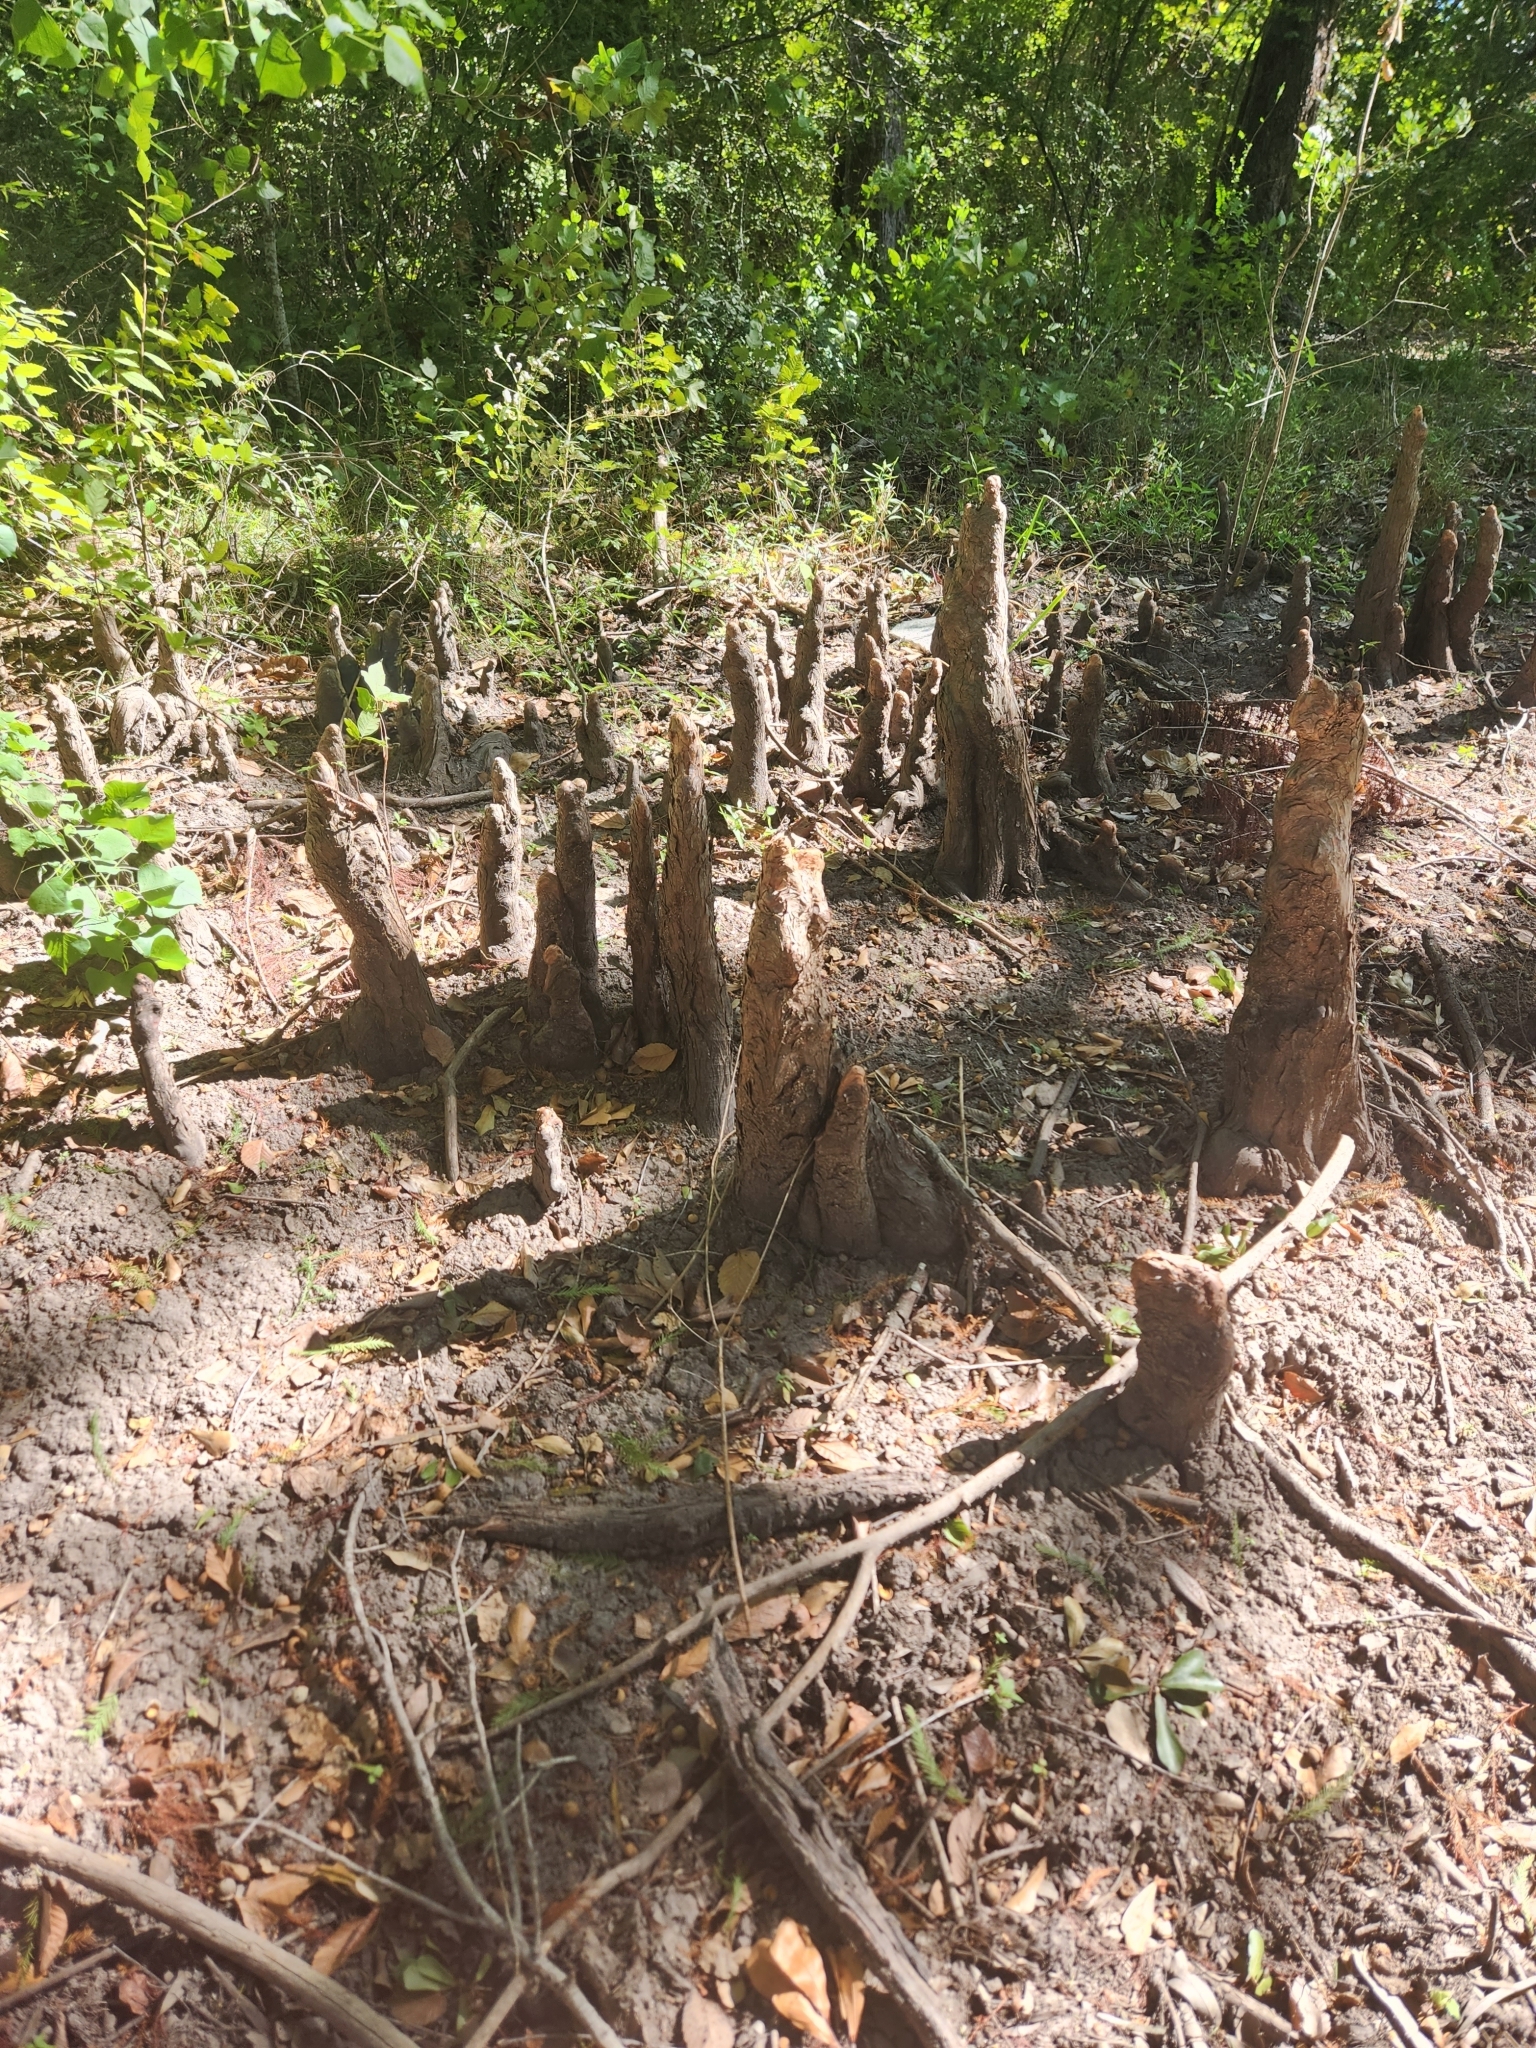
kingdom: Plantae
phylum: Tracheophyta
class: Pinopsida
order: Pinales
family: Cupressaceae
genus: Taxodium
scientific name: Taxodium distichum
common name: Bald cypress
